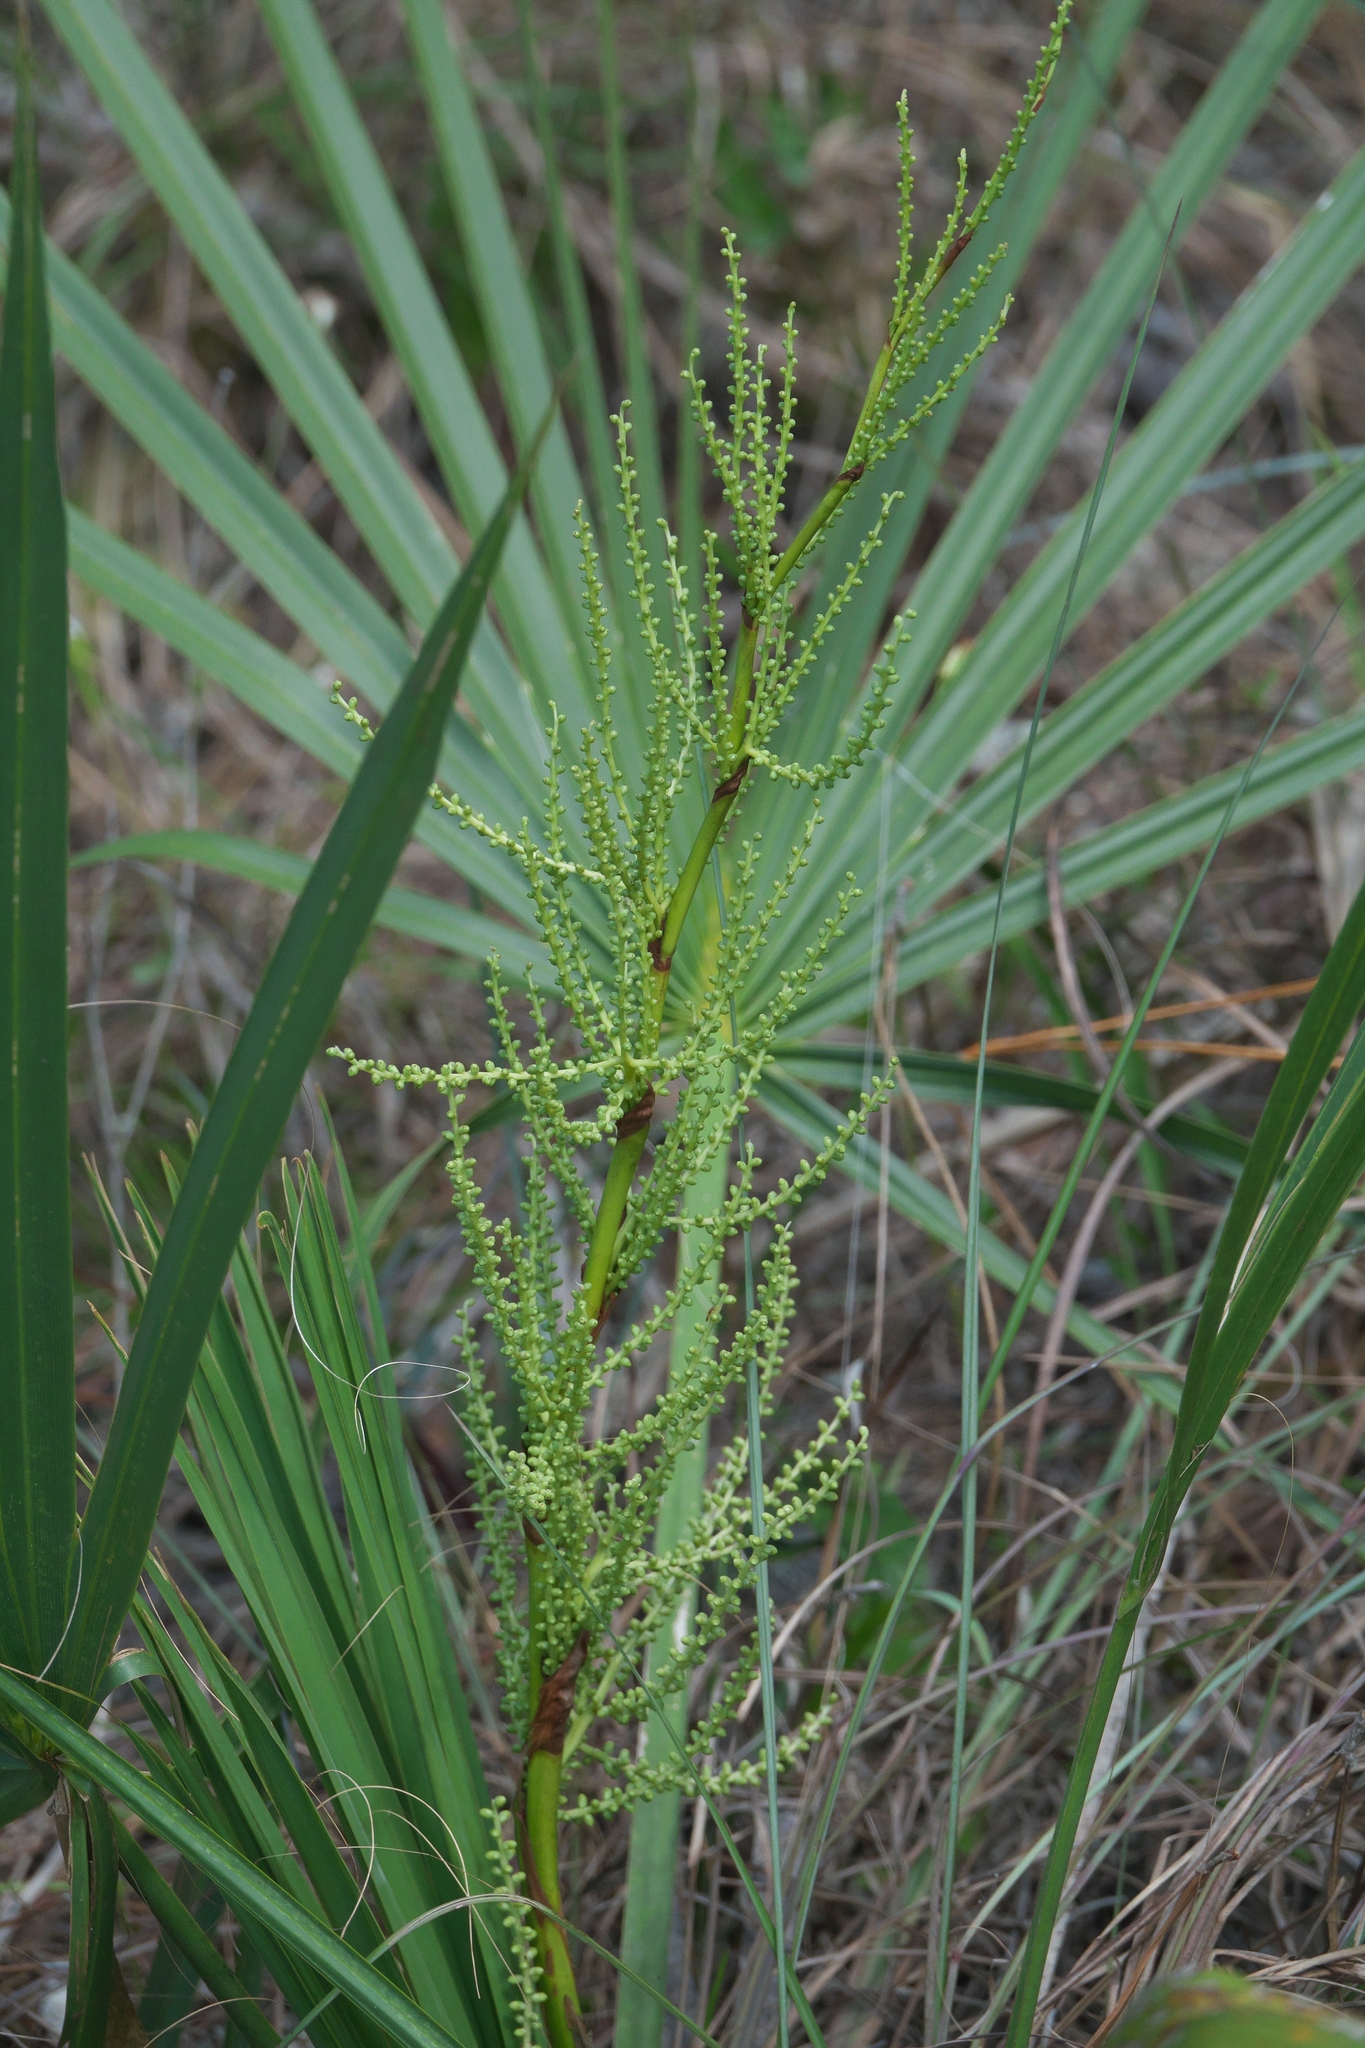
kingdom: Plantae
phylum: Tracheophyta
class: Liliopsida
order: Arecales
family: Arecaceae
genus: Serenoa
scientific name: Serenoa repens
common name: Saw-palmetto
